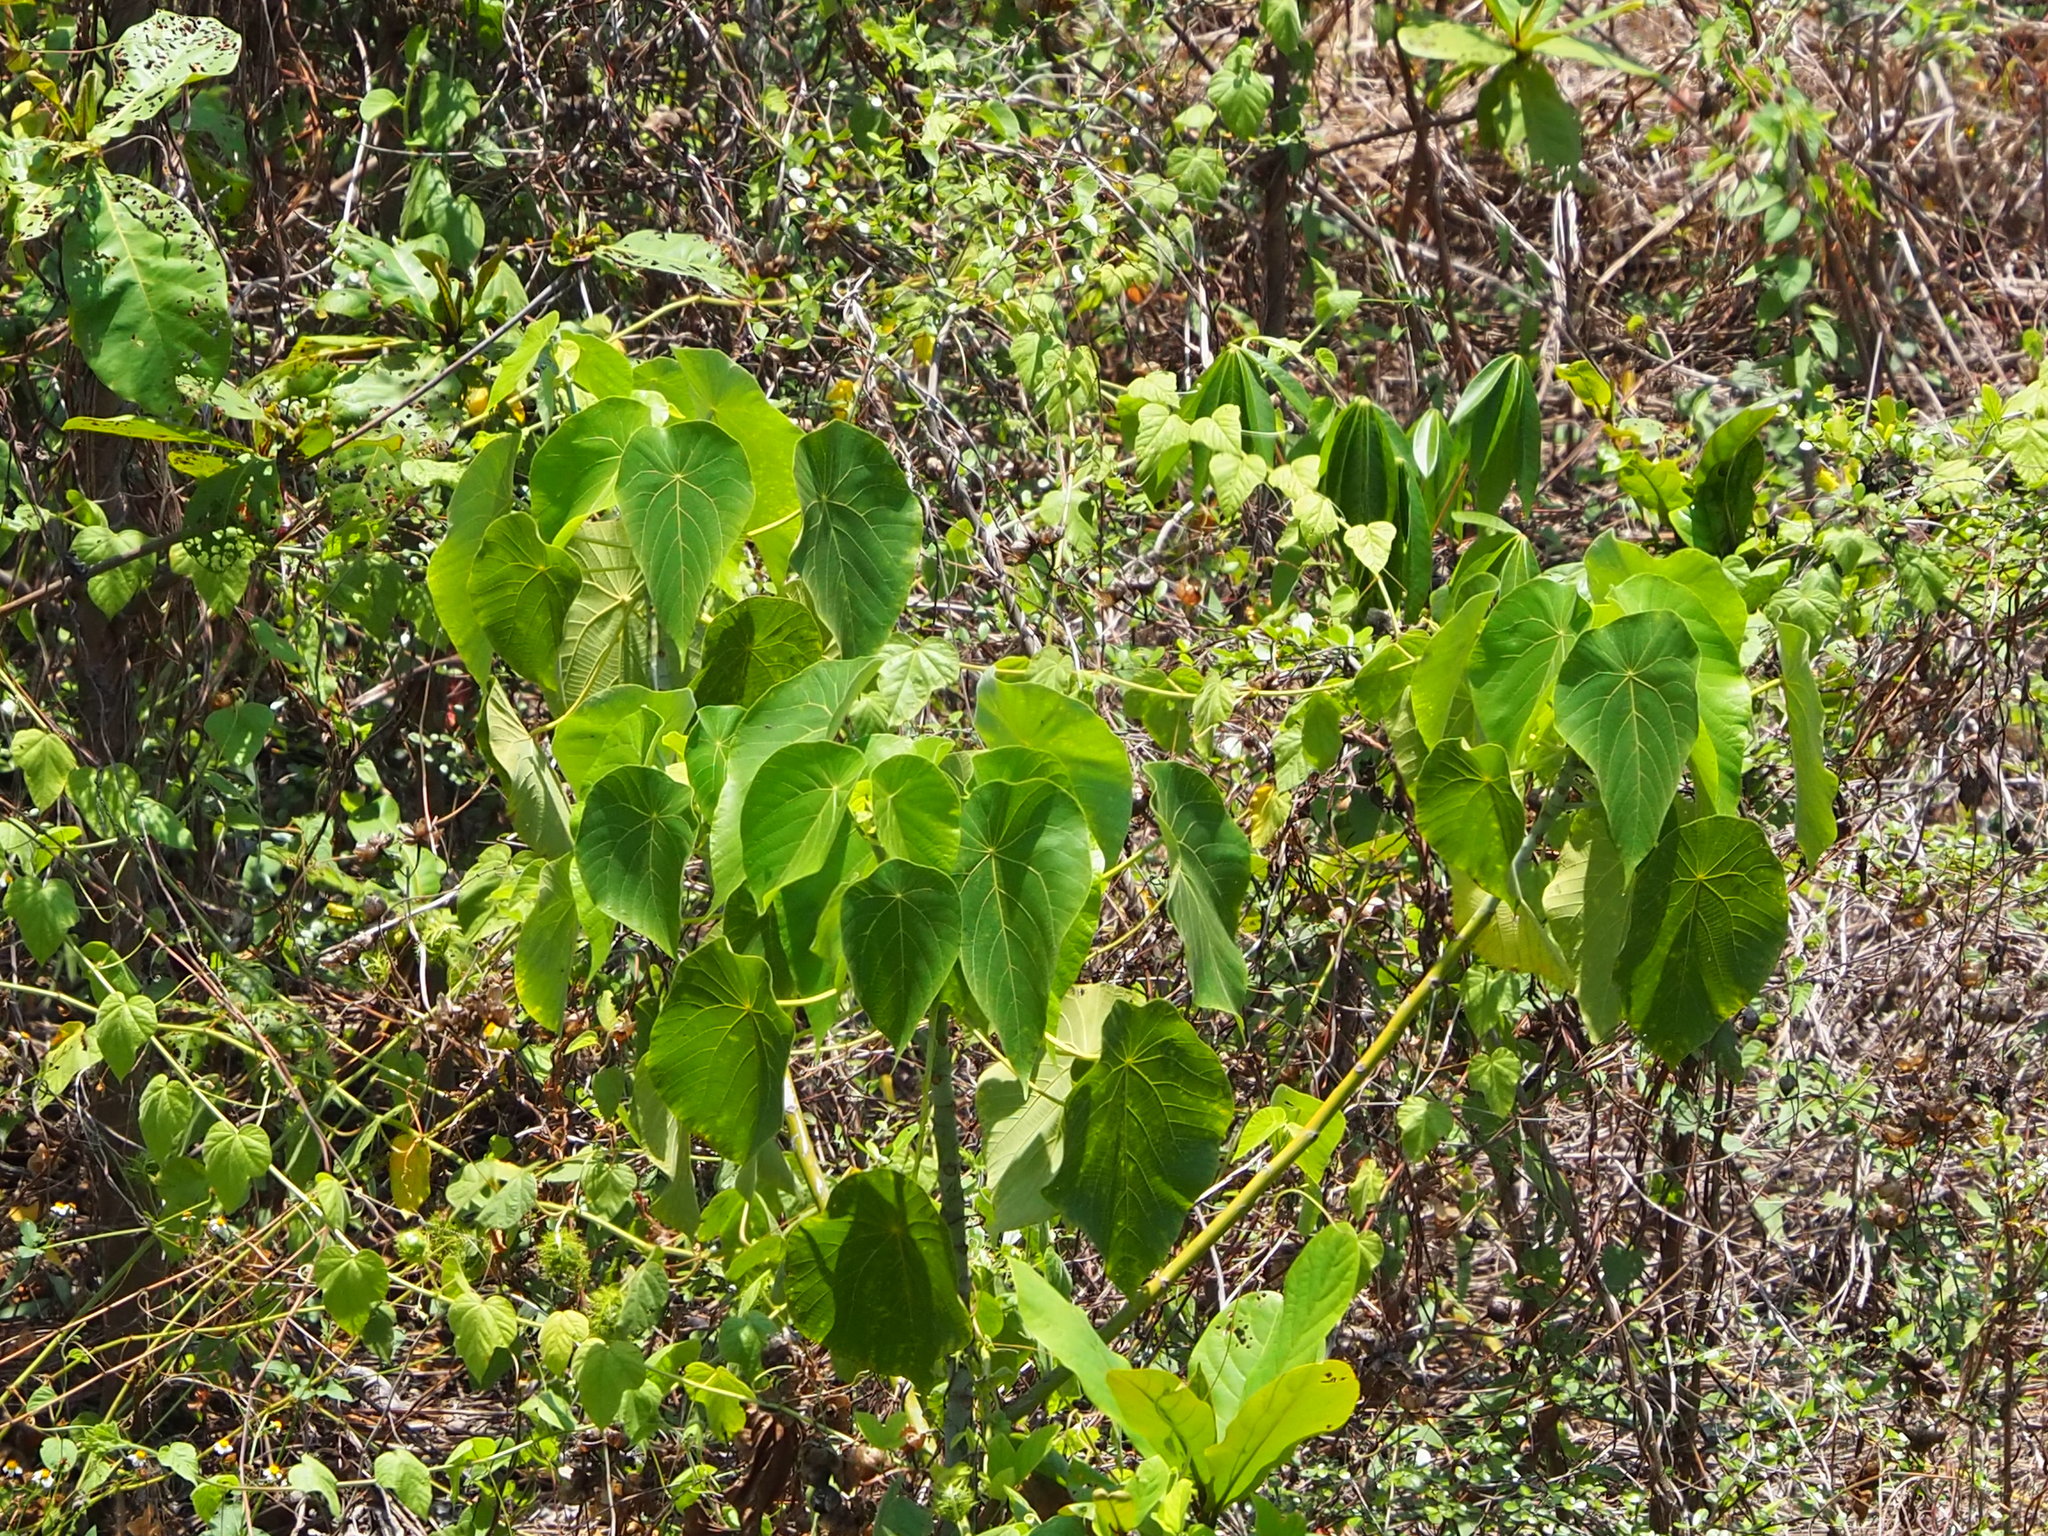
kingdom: Plantae
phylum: Tracheophyta
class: Magnoliopsida
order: Malpighiales
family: Euphorbiaceae
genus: Macaranga
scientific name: Macaranga tanarius
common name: Parasol leaf tree
